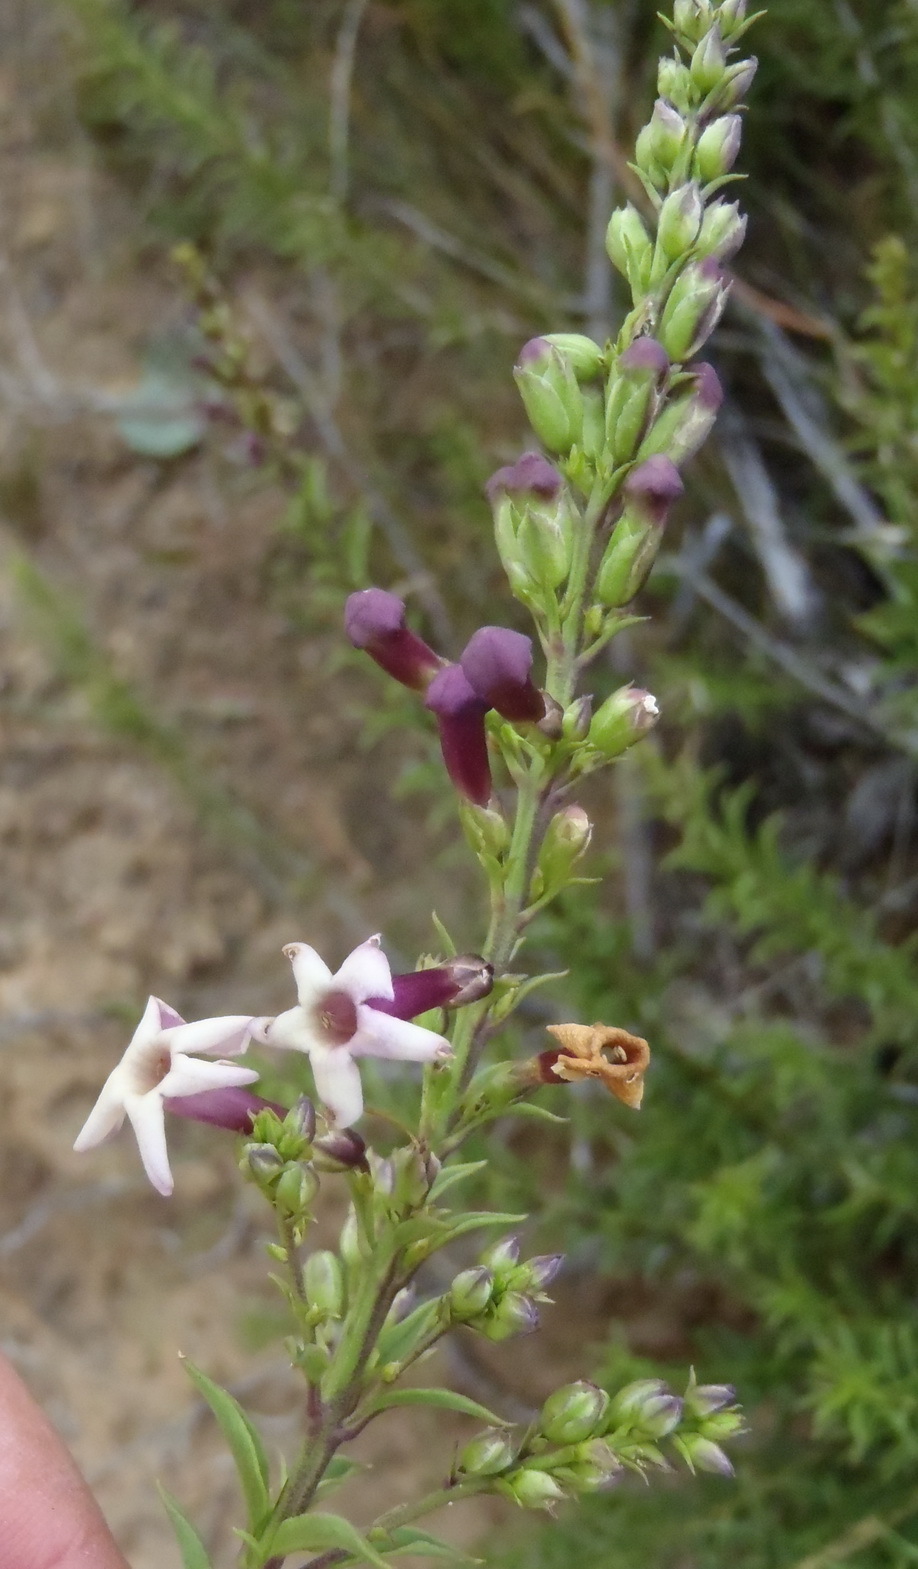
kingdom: Plantae
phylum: Tracheophyta
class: Magnoliopsida
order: Lamiales
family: Scrophulariaceae
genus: Freylinia
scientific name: Freylinia densiflora
